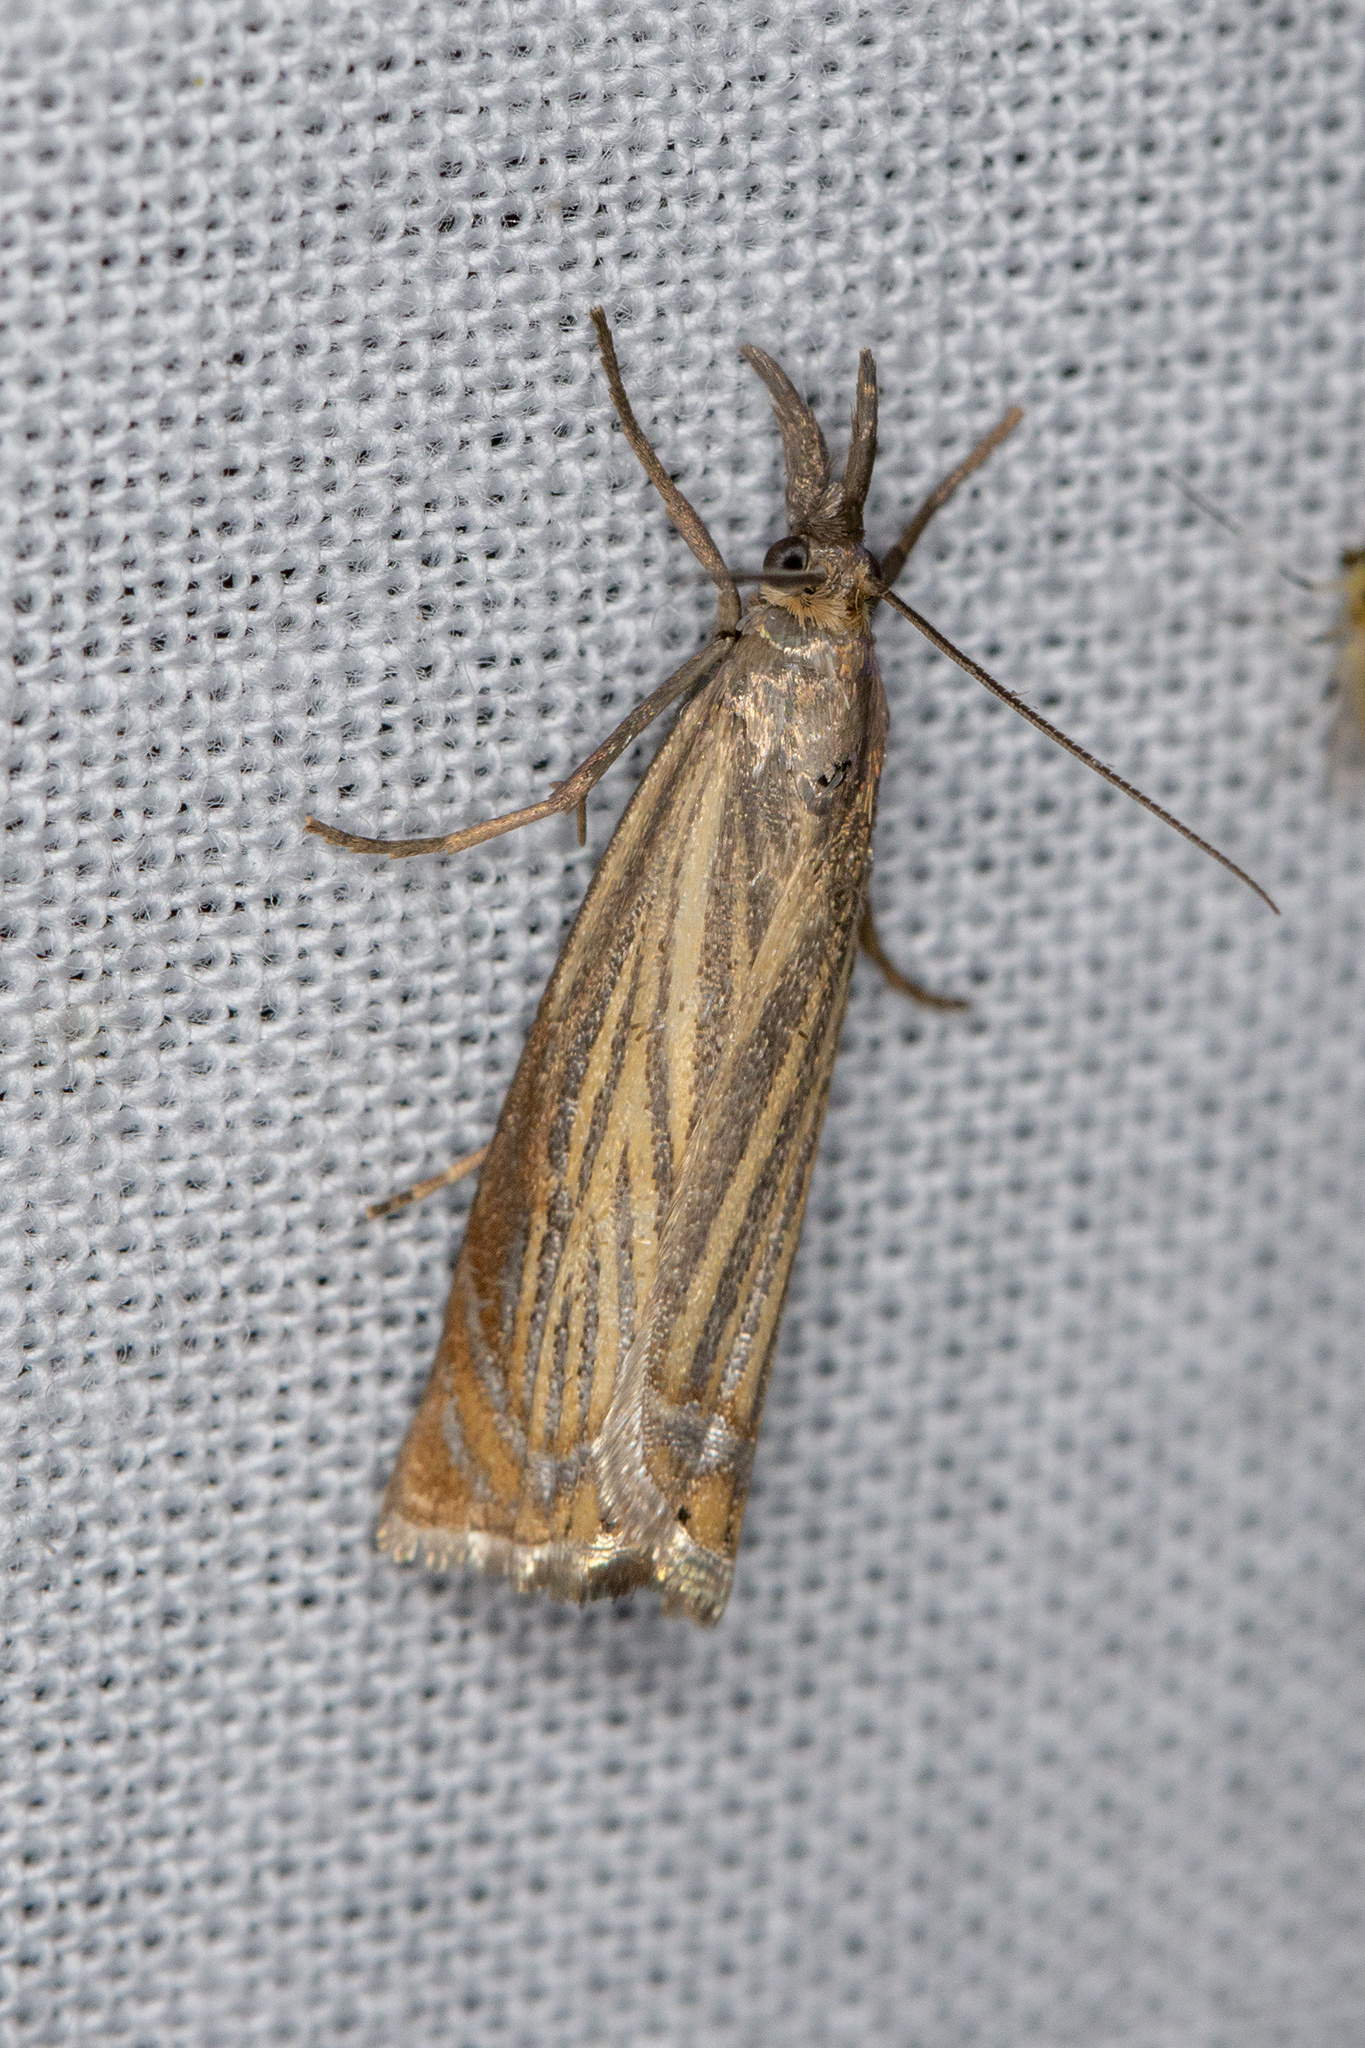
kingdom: Animalia
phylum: Arthropoda
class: Insecta
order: Lepidoptera
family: Crambidae
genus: Chrysoteuchia
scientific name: Chrysoteuchia culmella
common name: Garden grass-veneer
